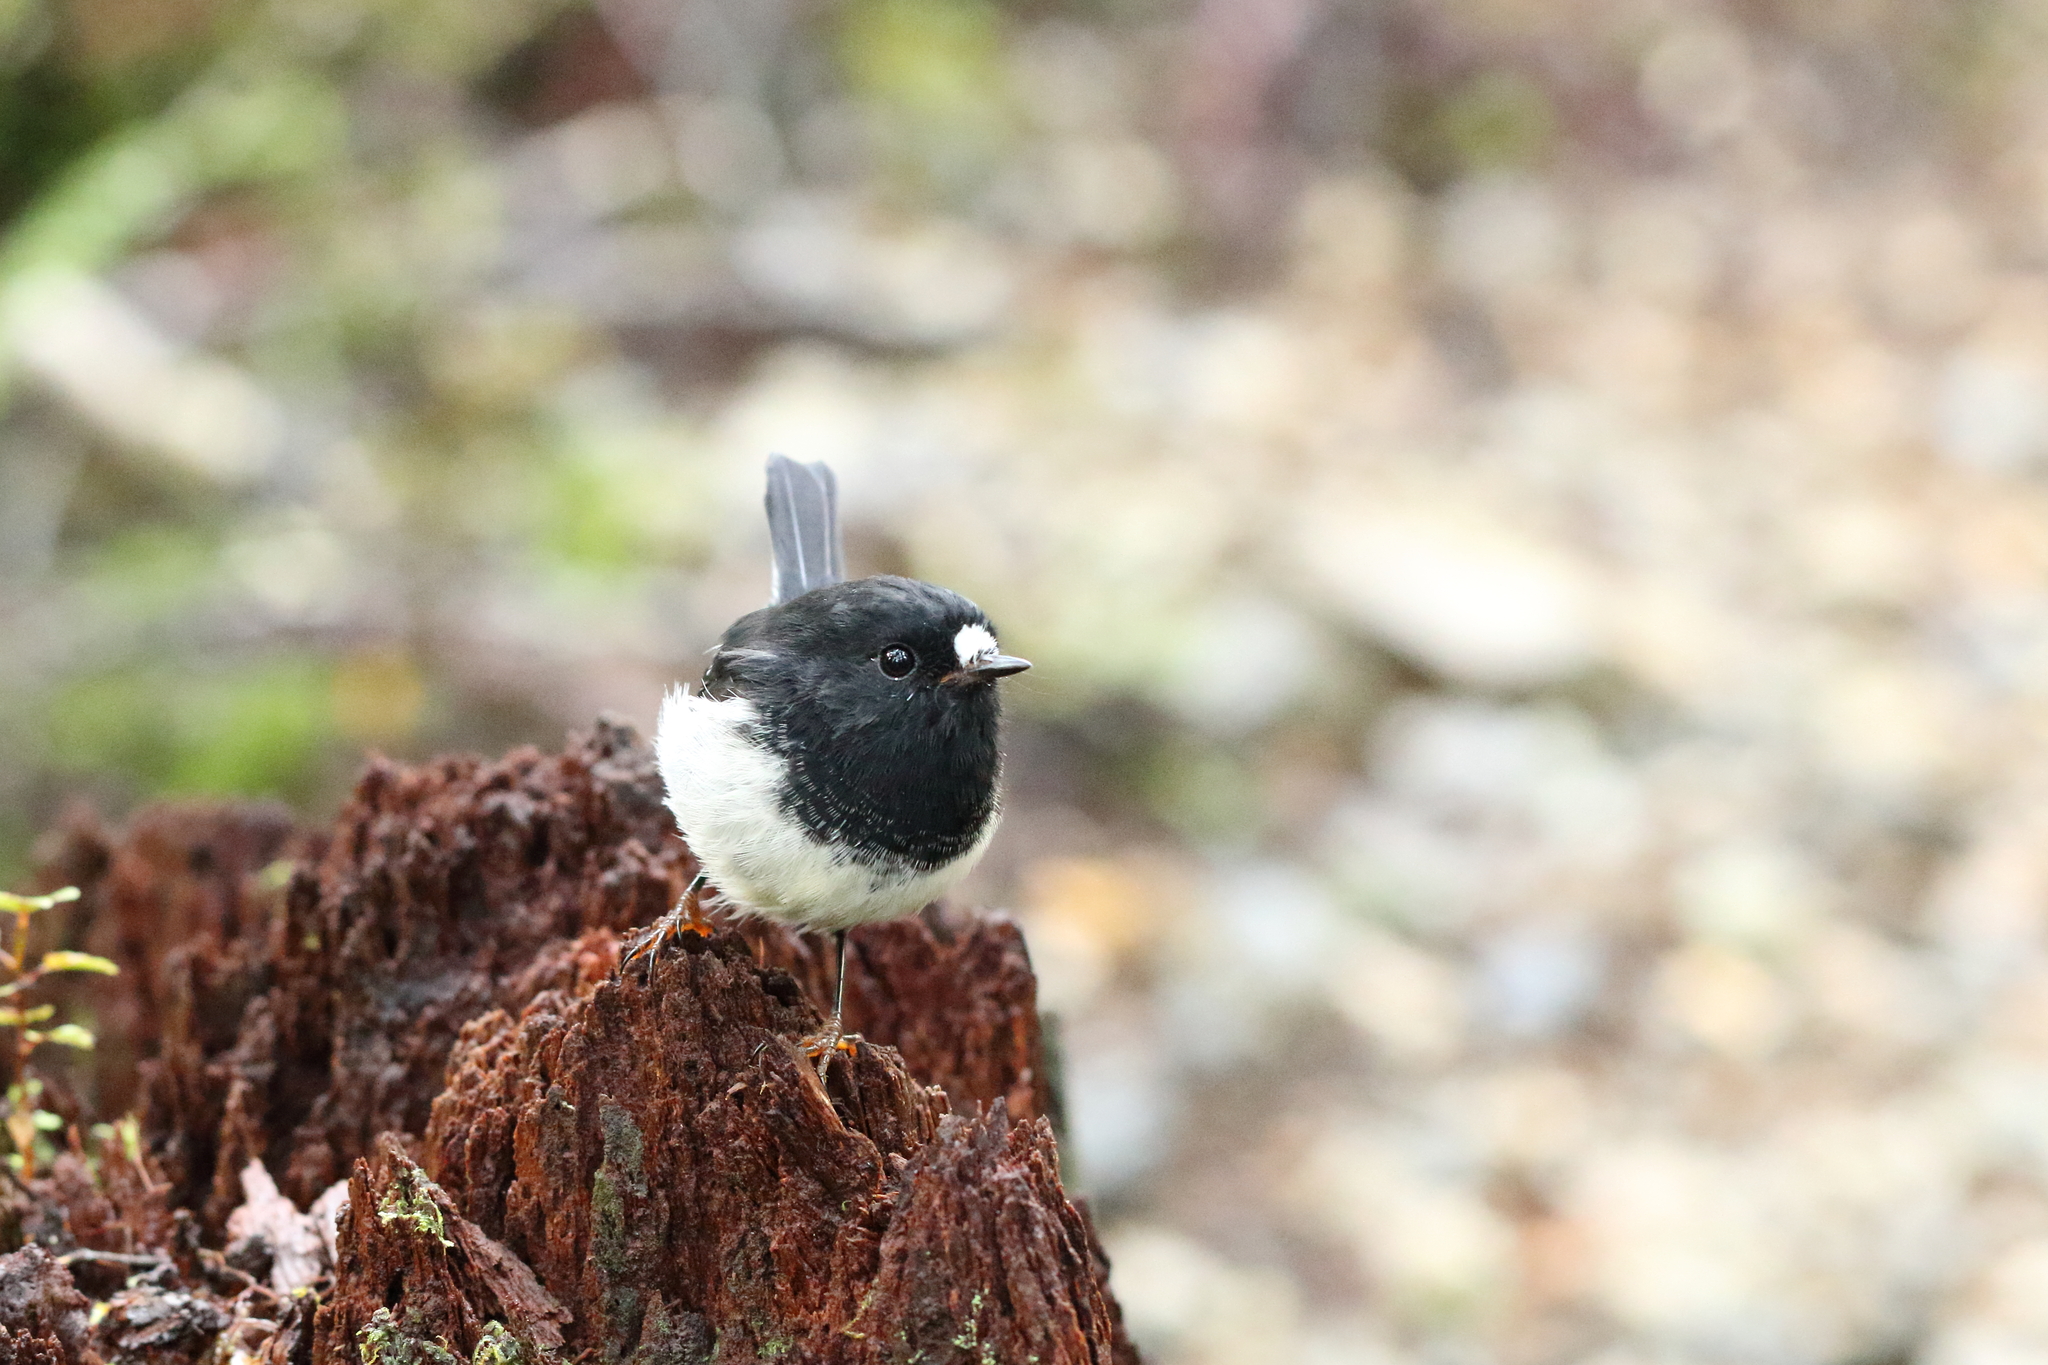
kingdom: Animalia
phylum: Chordata
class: Aves
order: Passeriformes
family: Petroicidae
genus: Petroica
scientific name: Petroica macrocephala
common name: Tomtit
